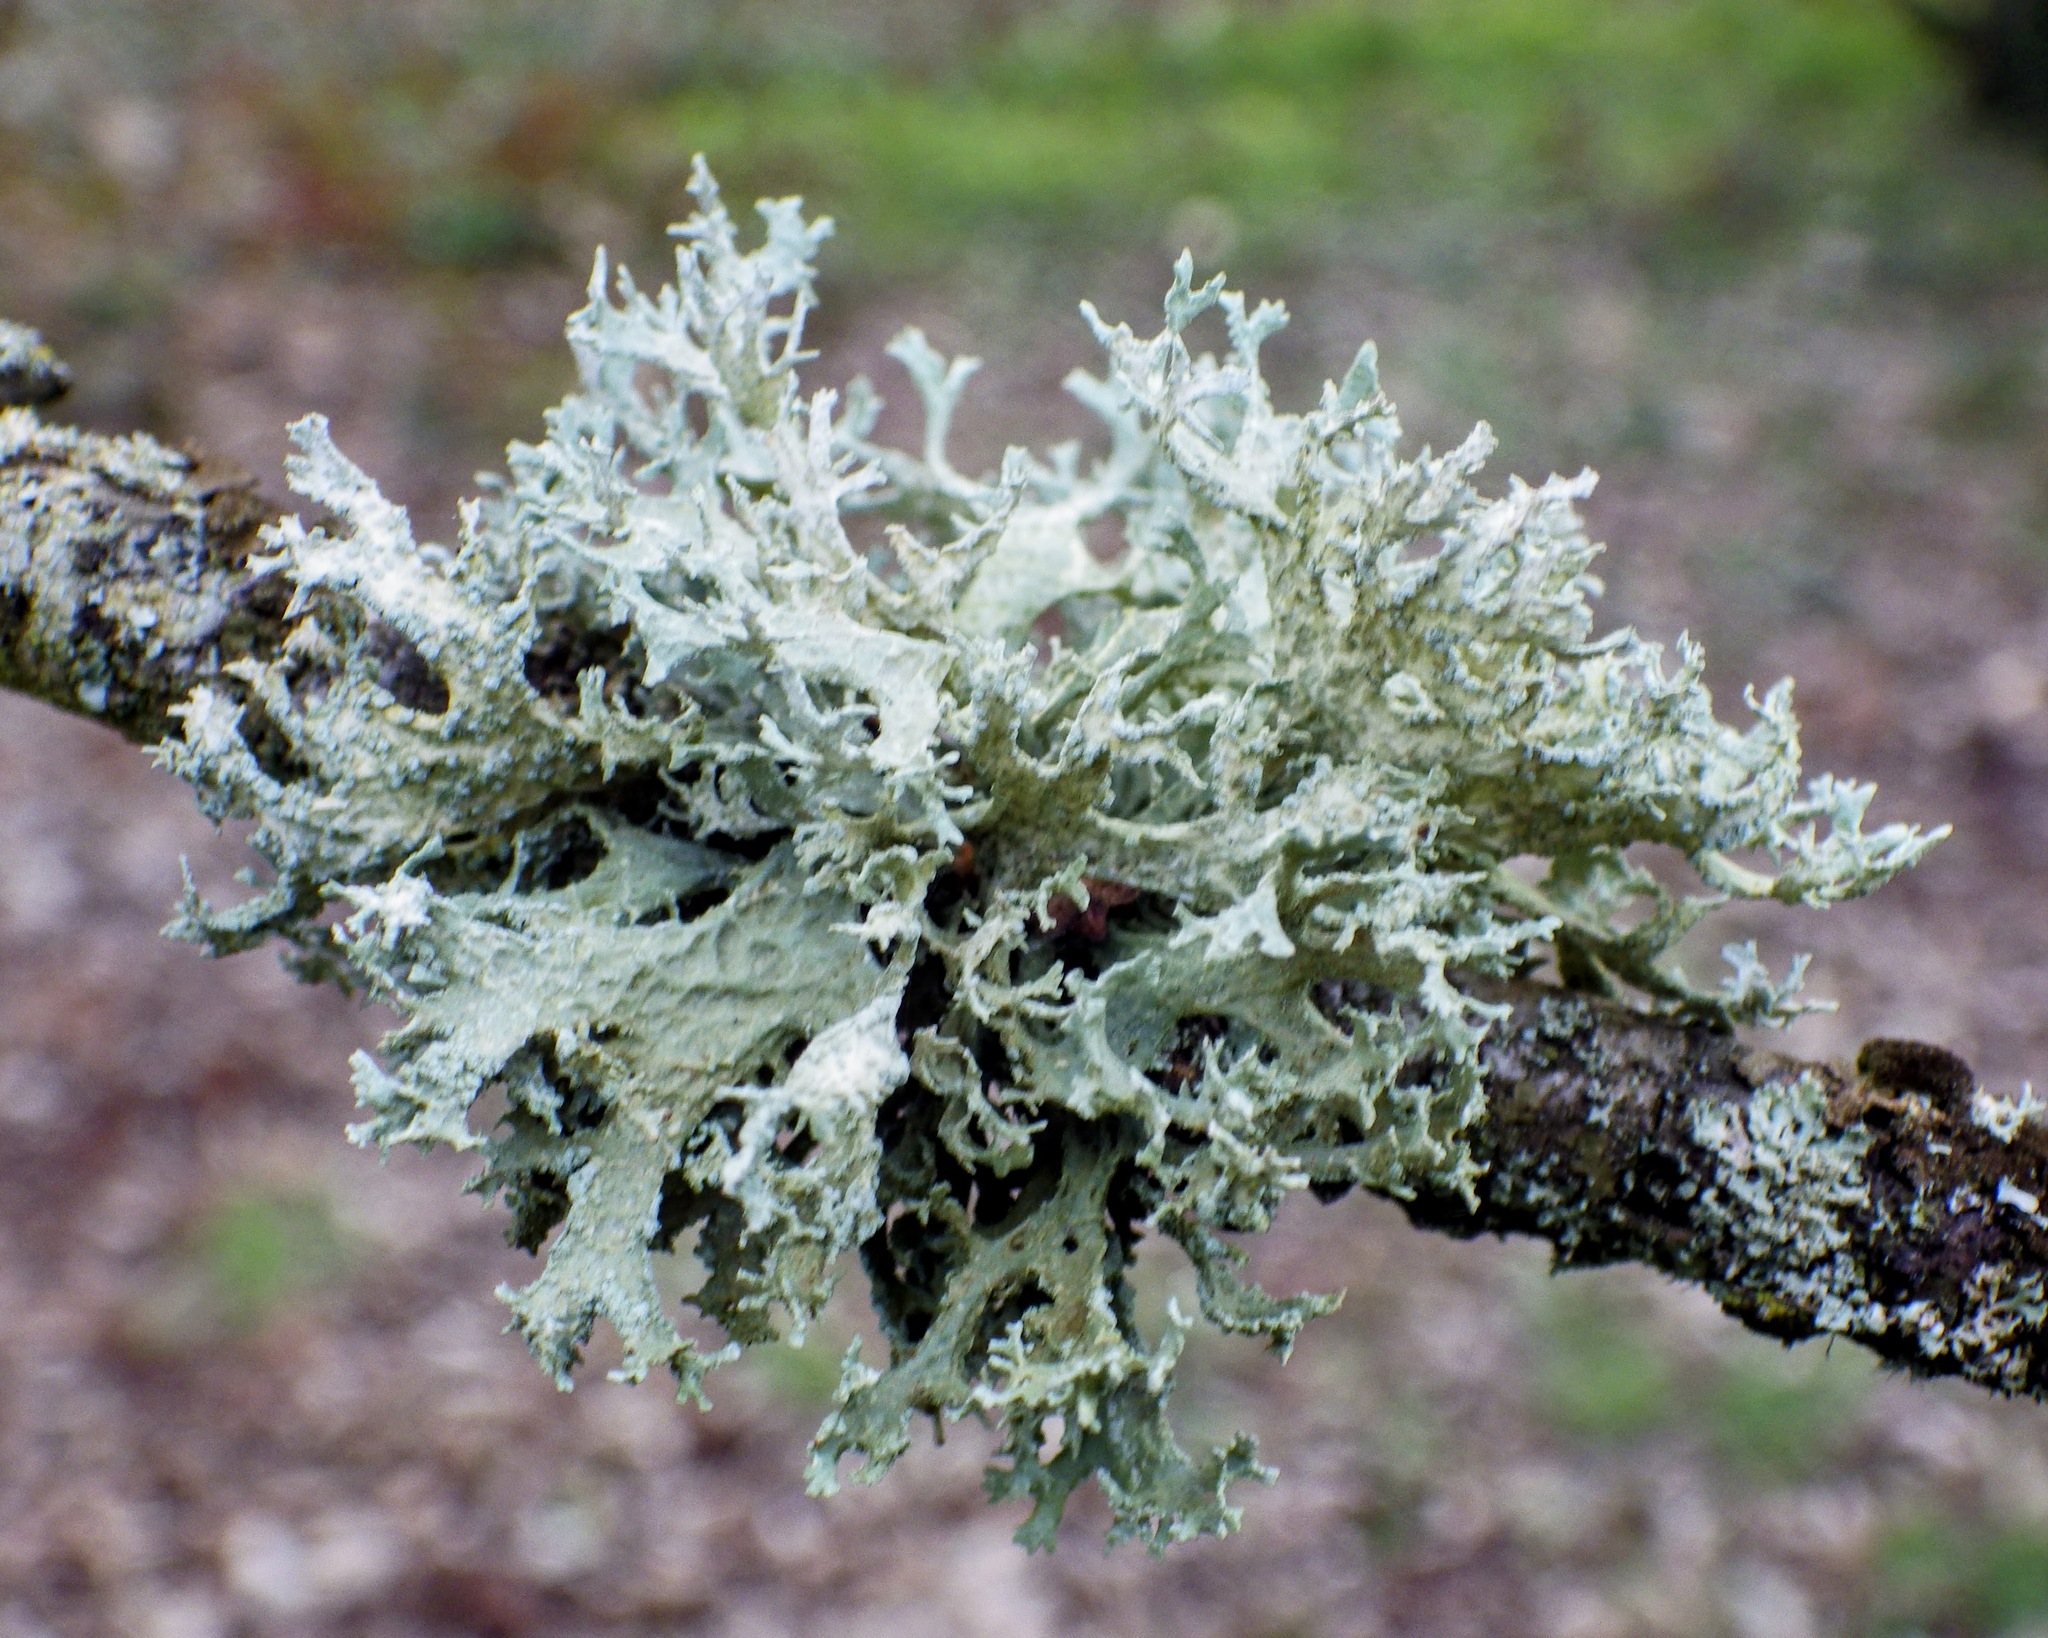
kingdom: Fungi
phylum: Ascomycota
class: Lecanoromycetes
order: Lecanorales
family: Parmeliaceae
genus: Evernia
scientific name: Evernia prunastri
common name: Oak moss
